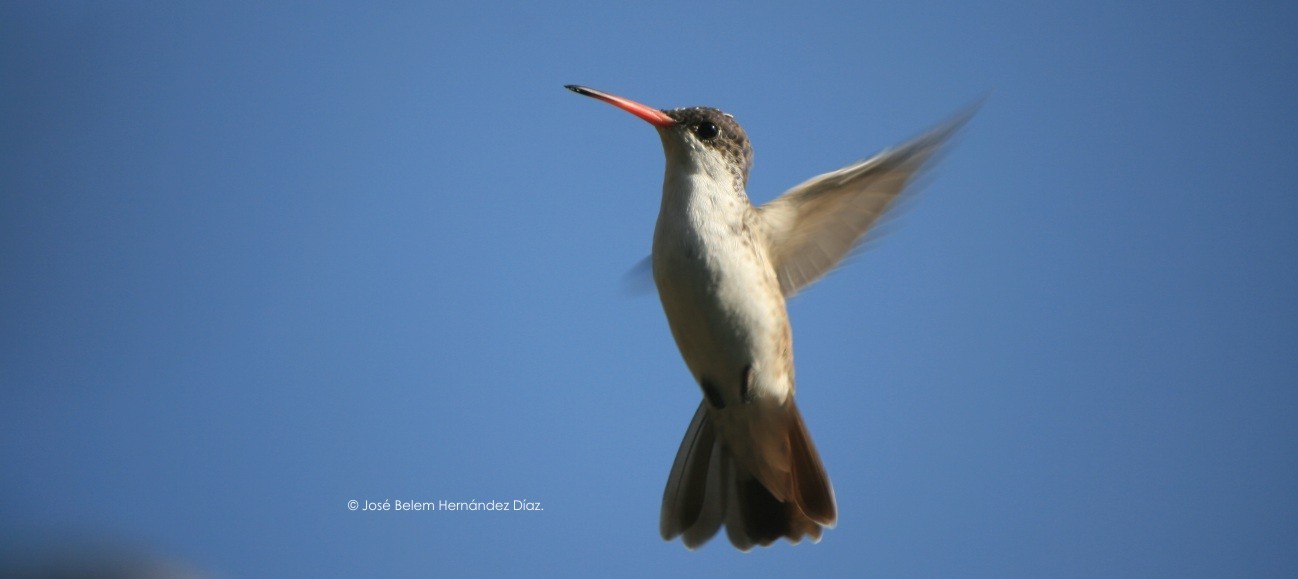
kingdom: Animalia
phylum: Chordata
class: Aves
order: Apodiformes
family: Trochilidae
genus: Leucolia
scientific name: Leucolia violiceps
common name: Violet-crowned hummingbird
